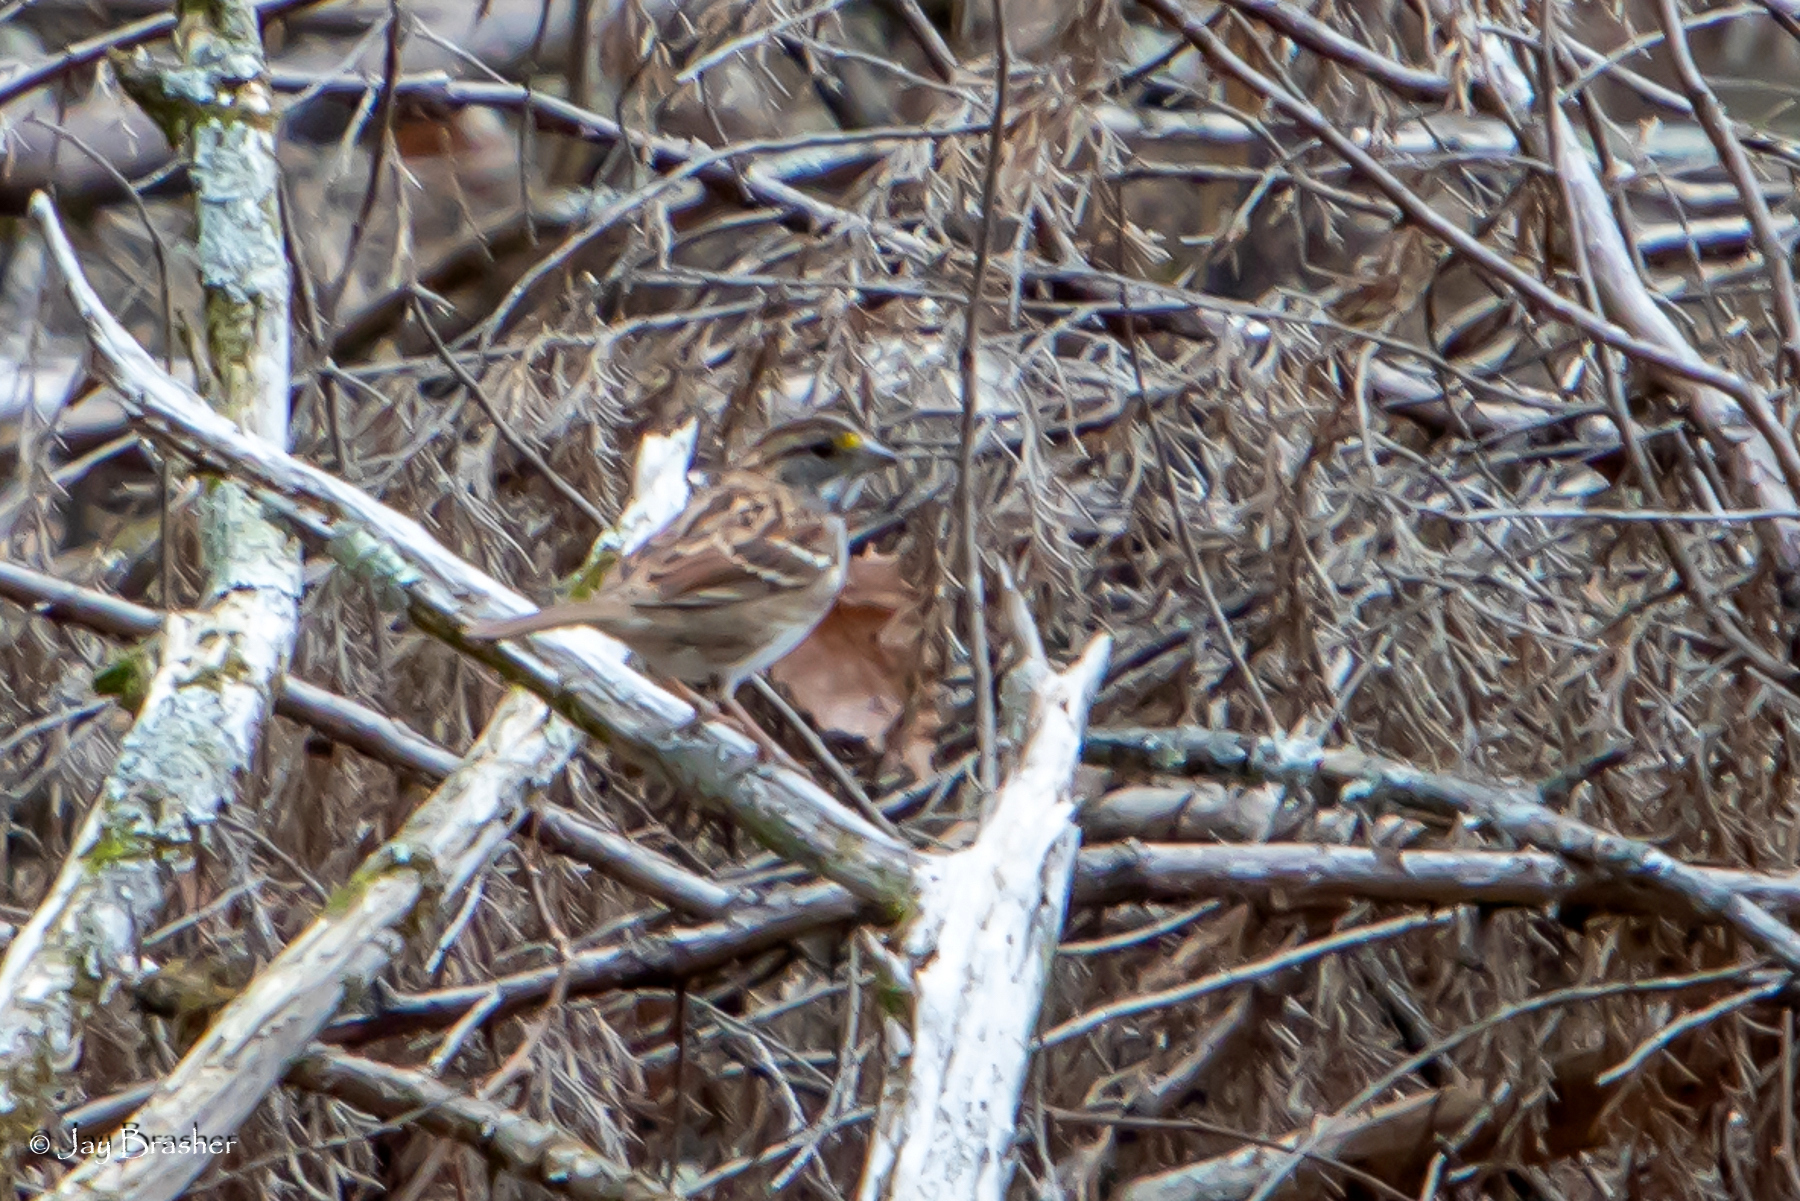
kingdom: Animalia
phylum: Chordata
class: Aves
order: Passeriformes
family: Passerellidae
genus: Zonotrichia
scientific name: Zonotrichia albicollis
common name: White-throated sparrow
